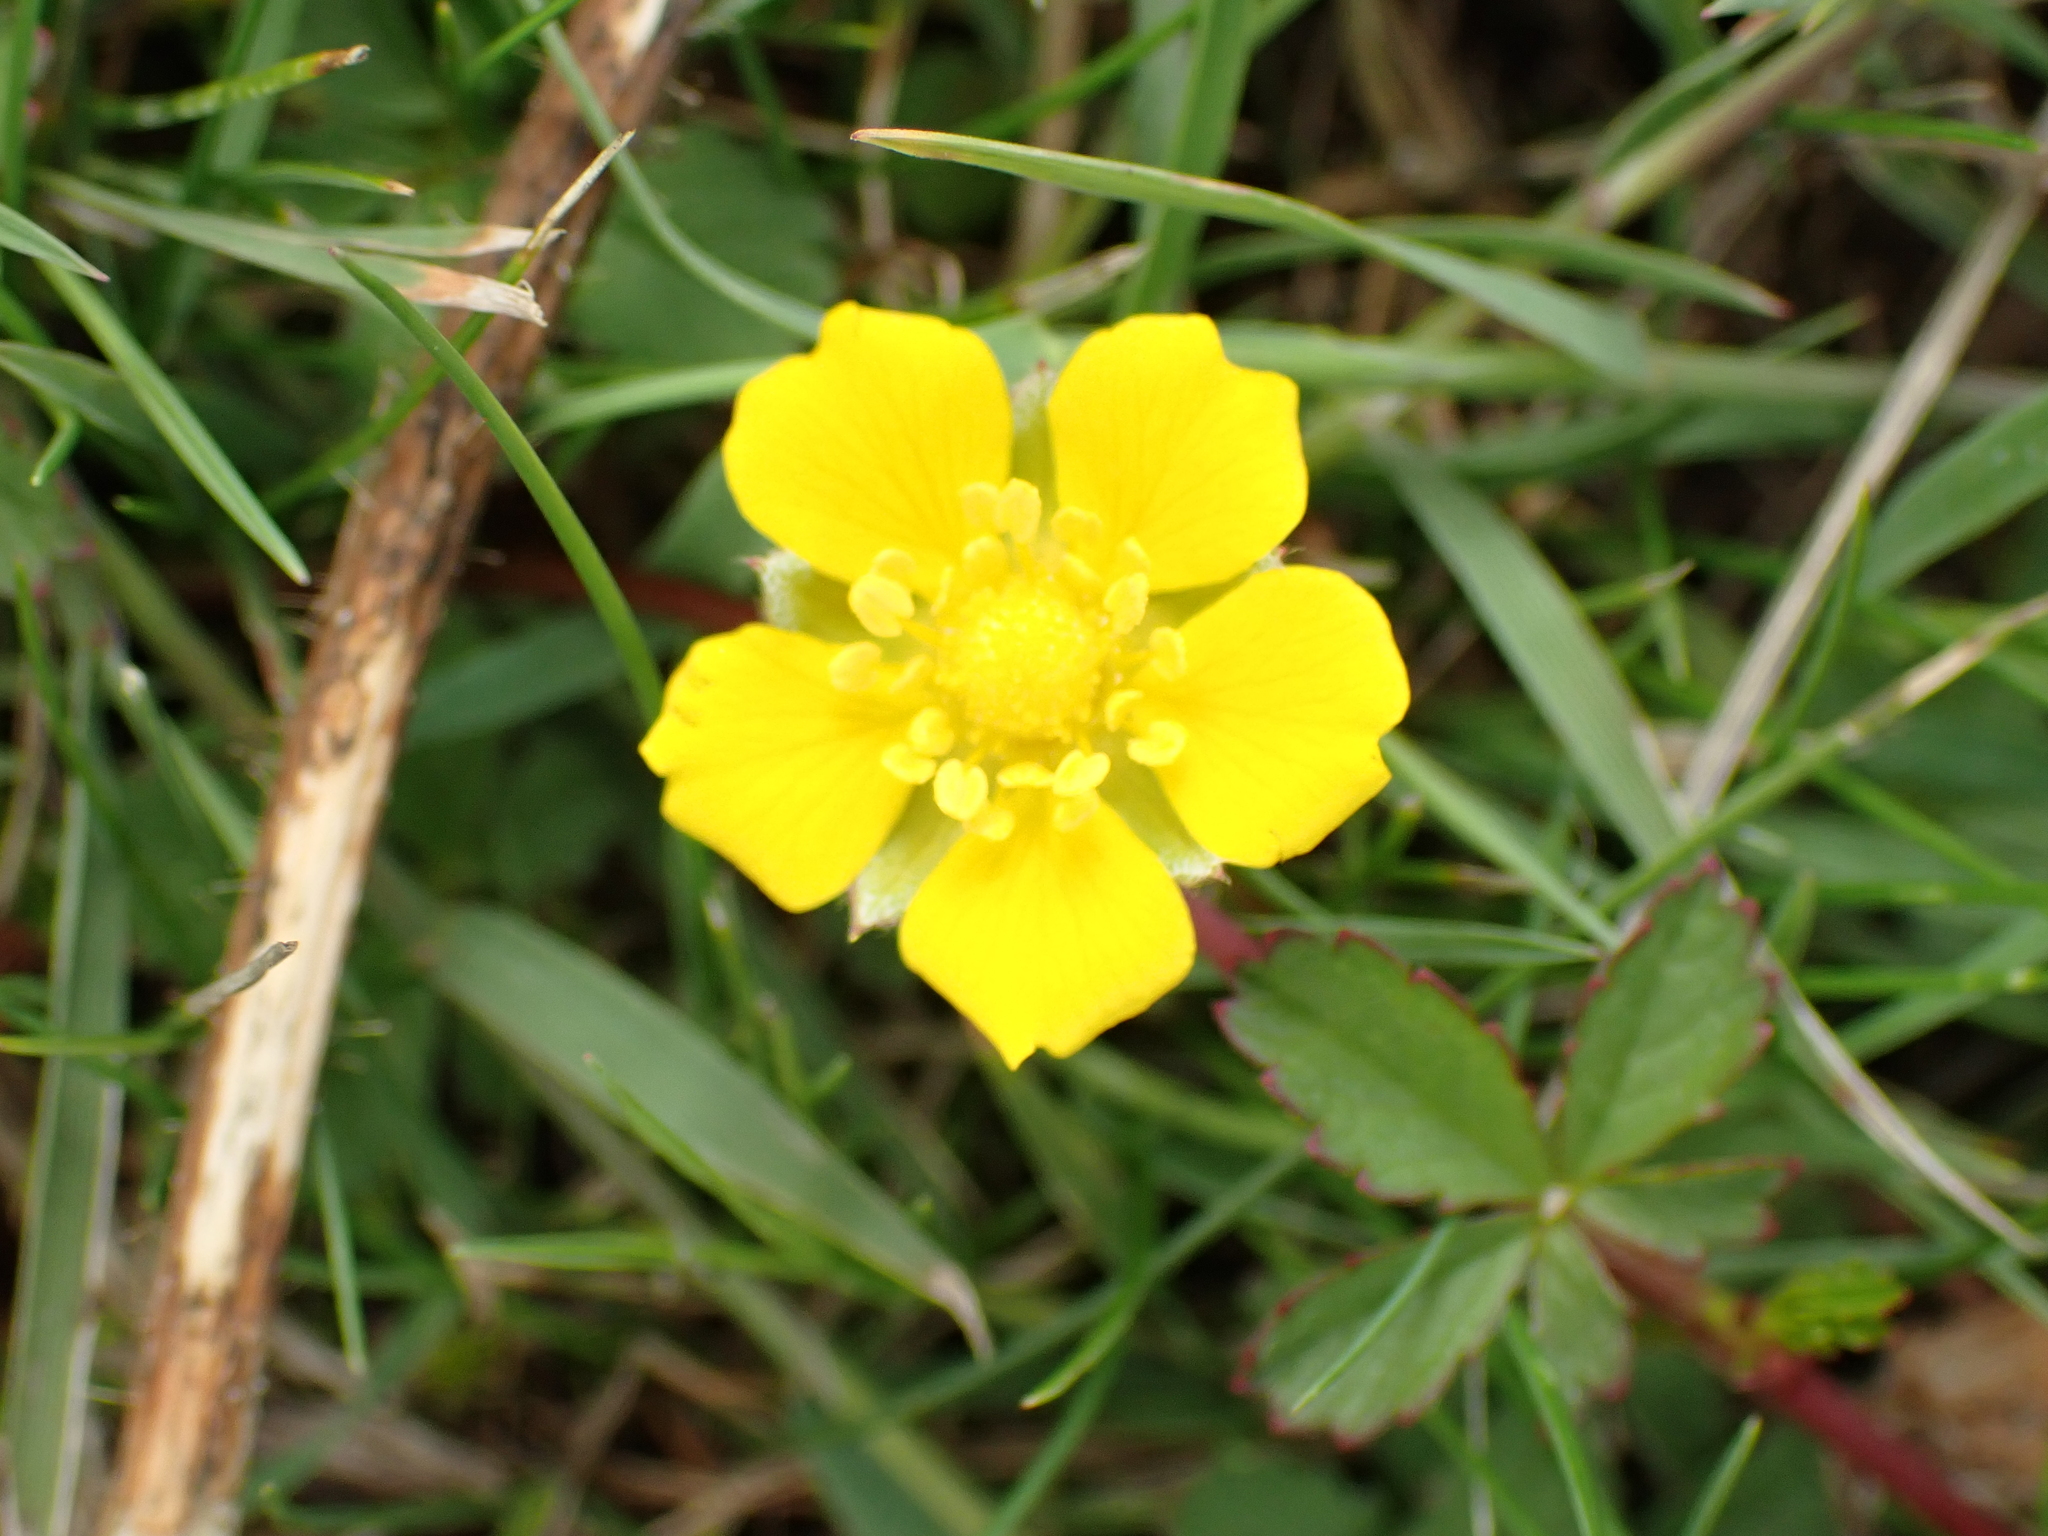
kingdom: Plantae
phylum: Tracheophyta
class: Magnoliopsida
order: Rosales
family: Rosaceae
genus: Potentilla
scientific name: Potentilla reptans
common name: Creeping cinquefoil
